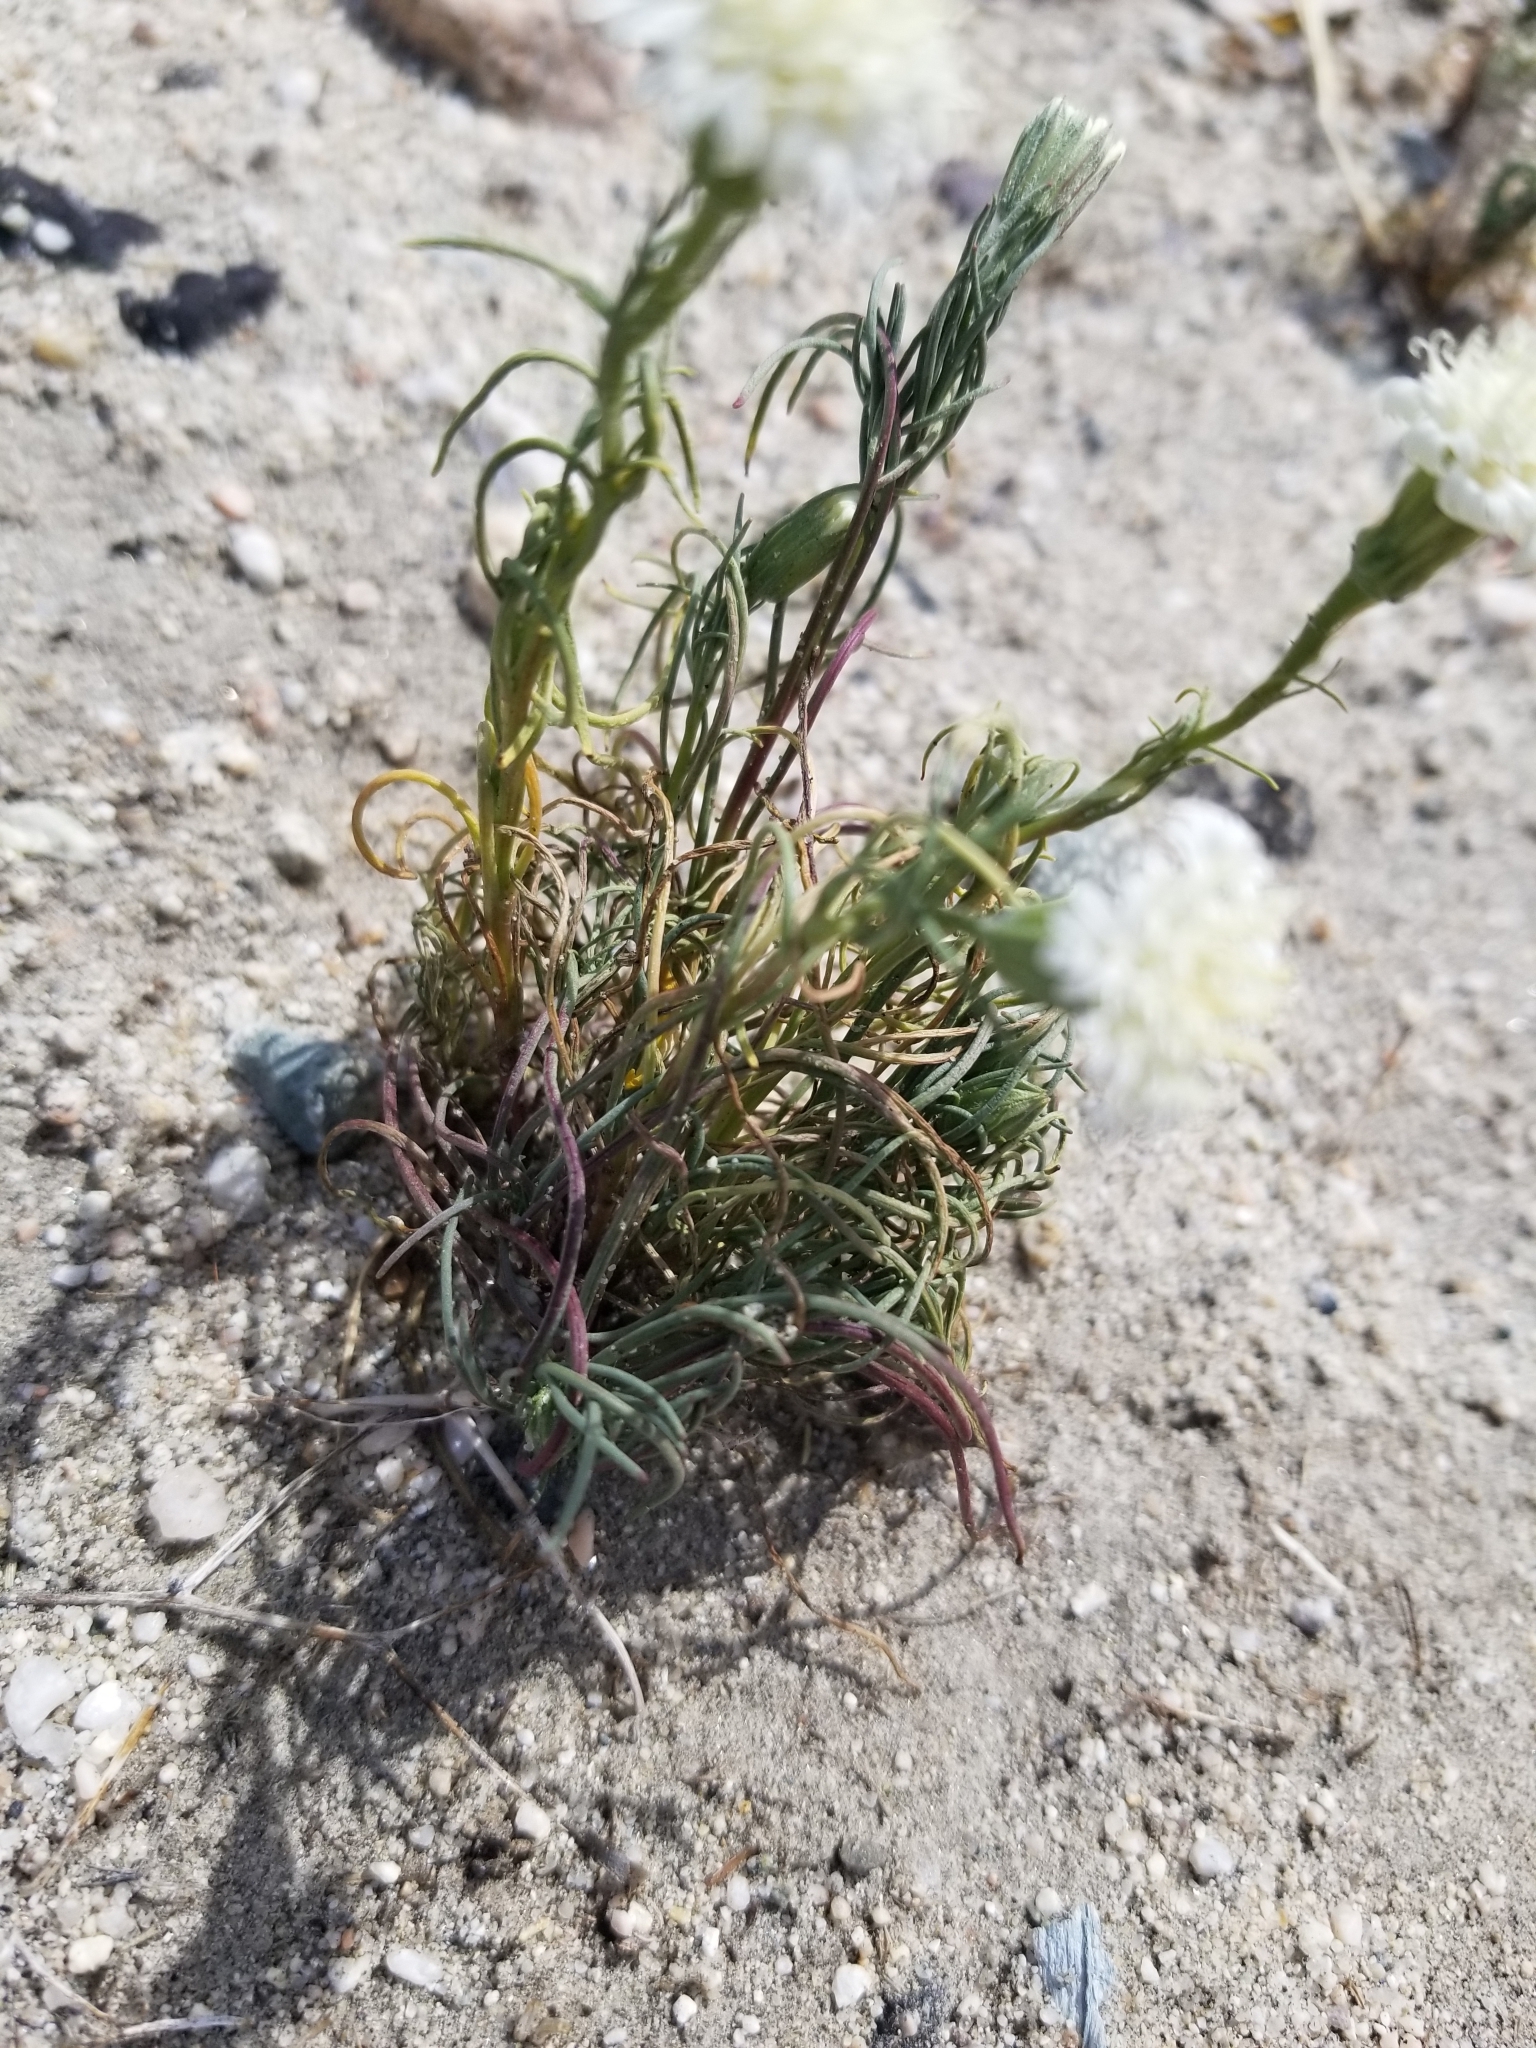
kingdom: Plantae
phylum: Tracheophyta
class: Magnoliopsida
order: Asterales
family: Asteraceae
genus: Chaenactis
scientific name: Chaenactis fremontii
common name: Fremont pincushion
